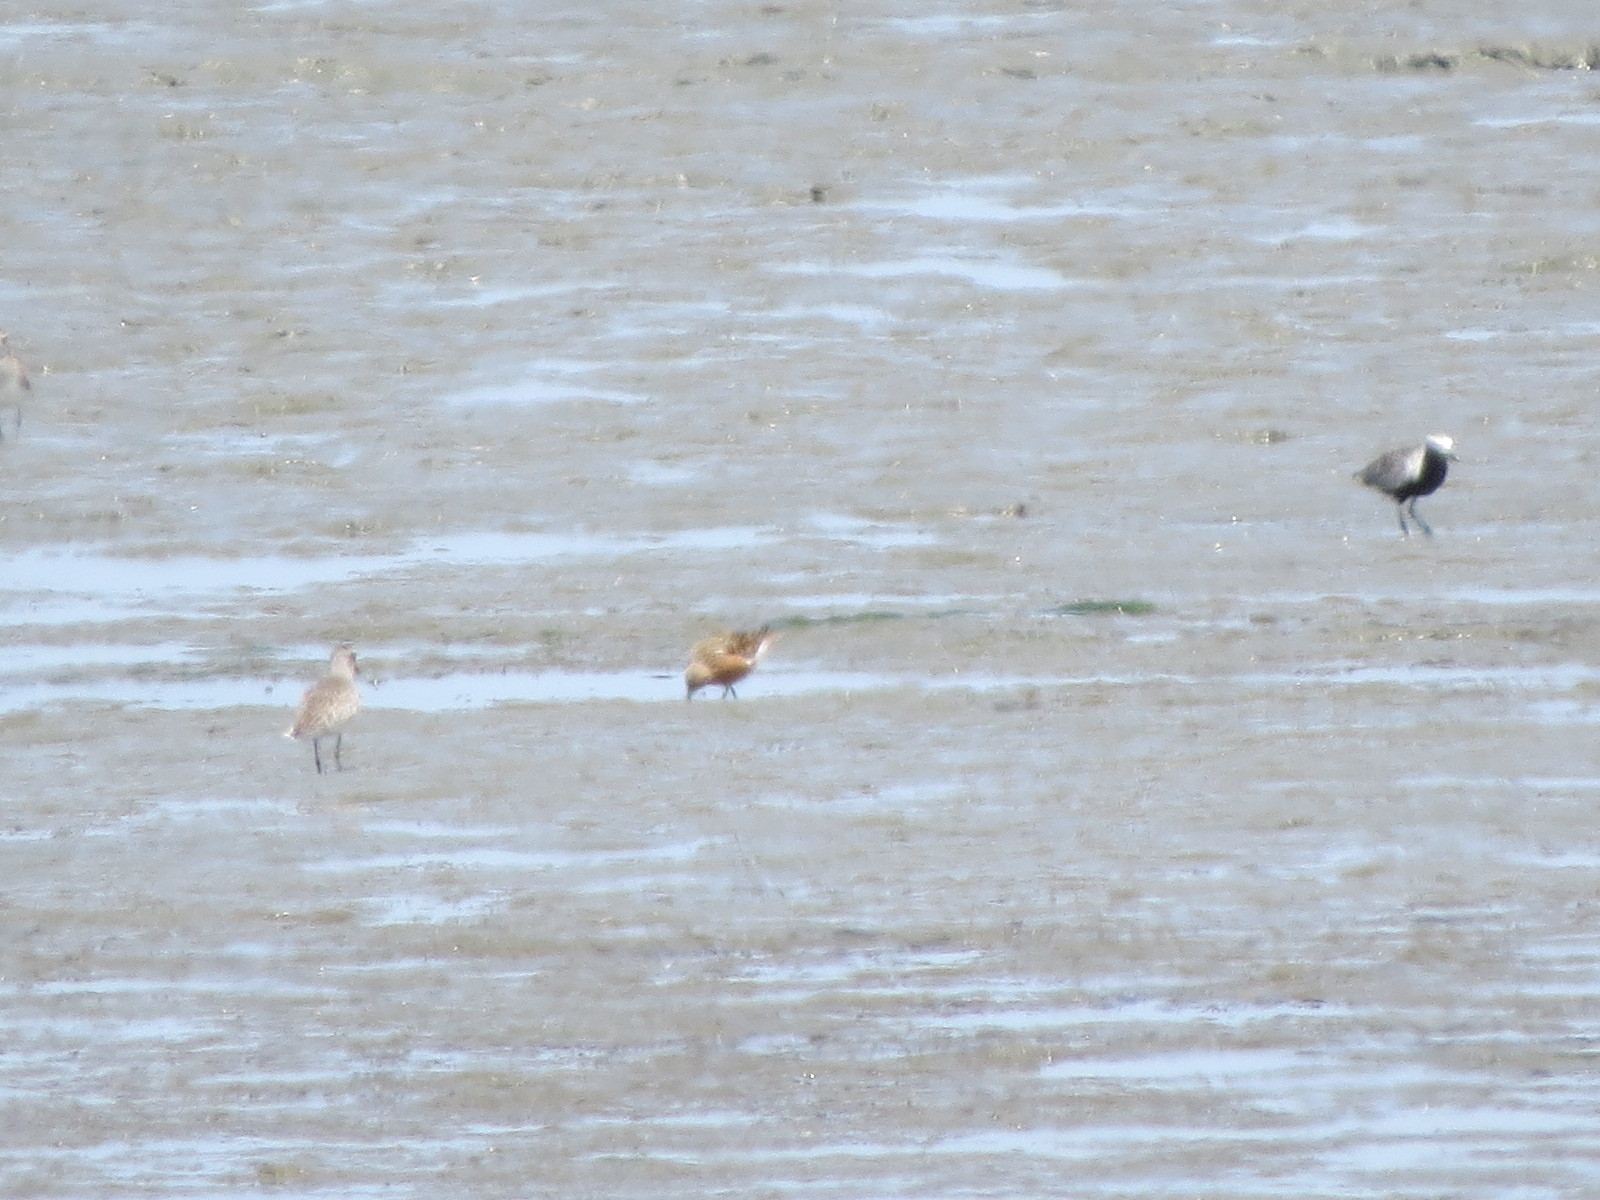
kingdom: Animalia
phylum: Chordata
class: Aves
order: Charadriiformes
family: Scolopacidae
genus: Calidris
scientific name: Calidris canutus
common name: Red knot
